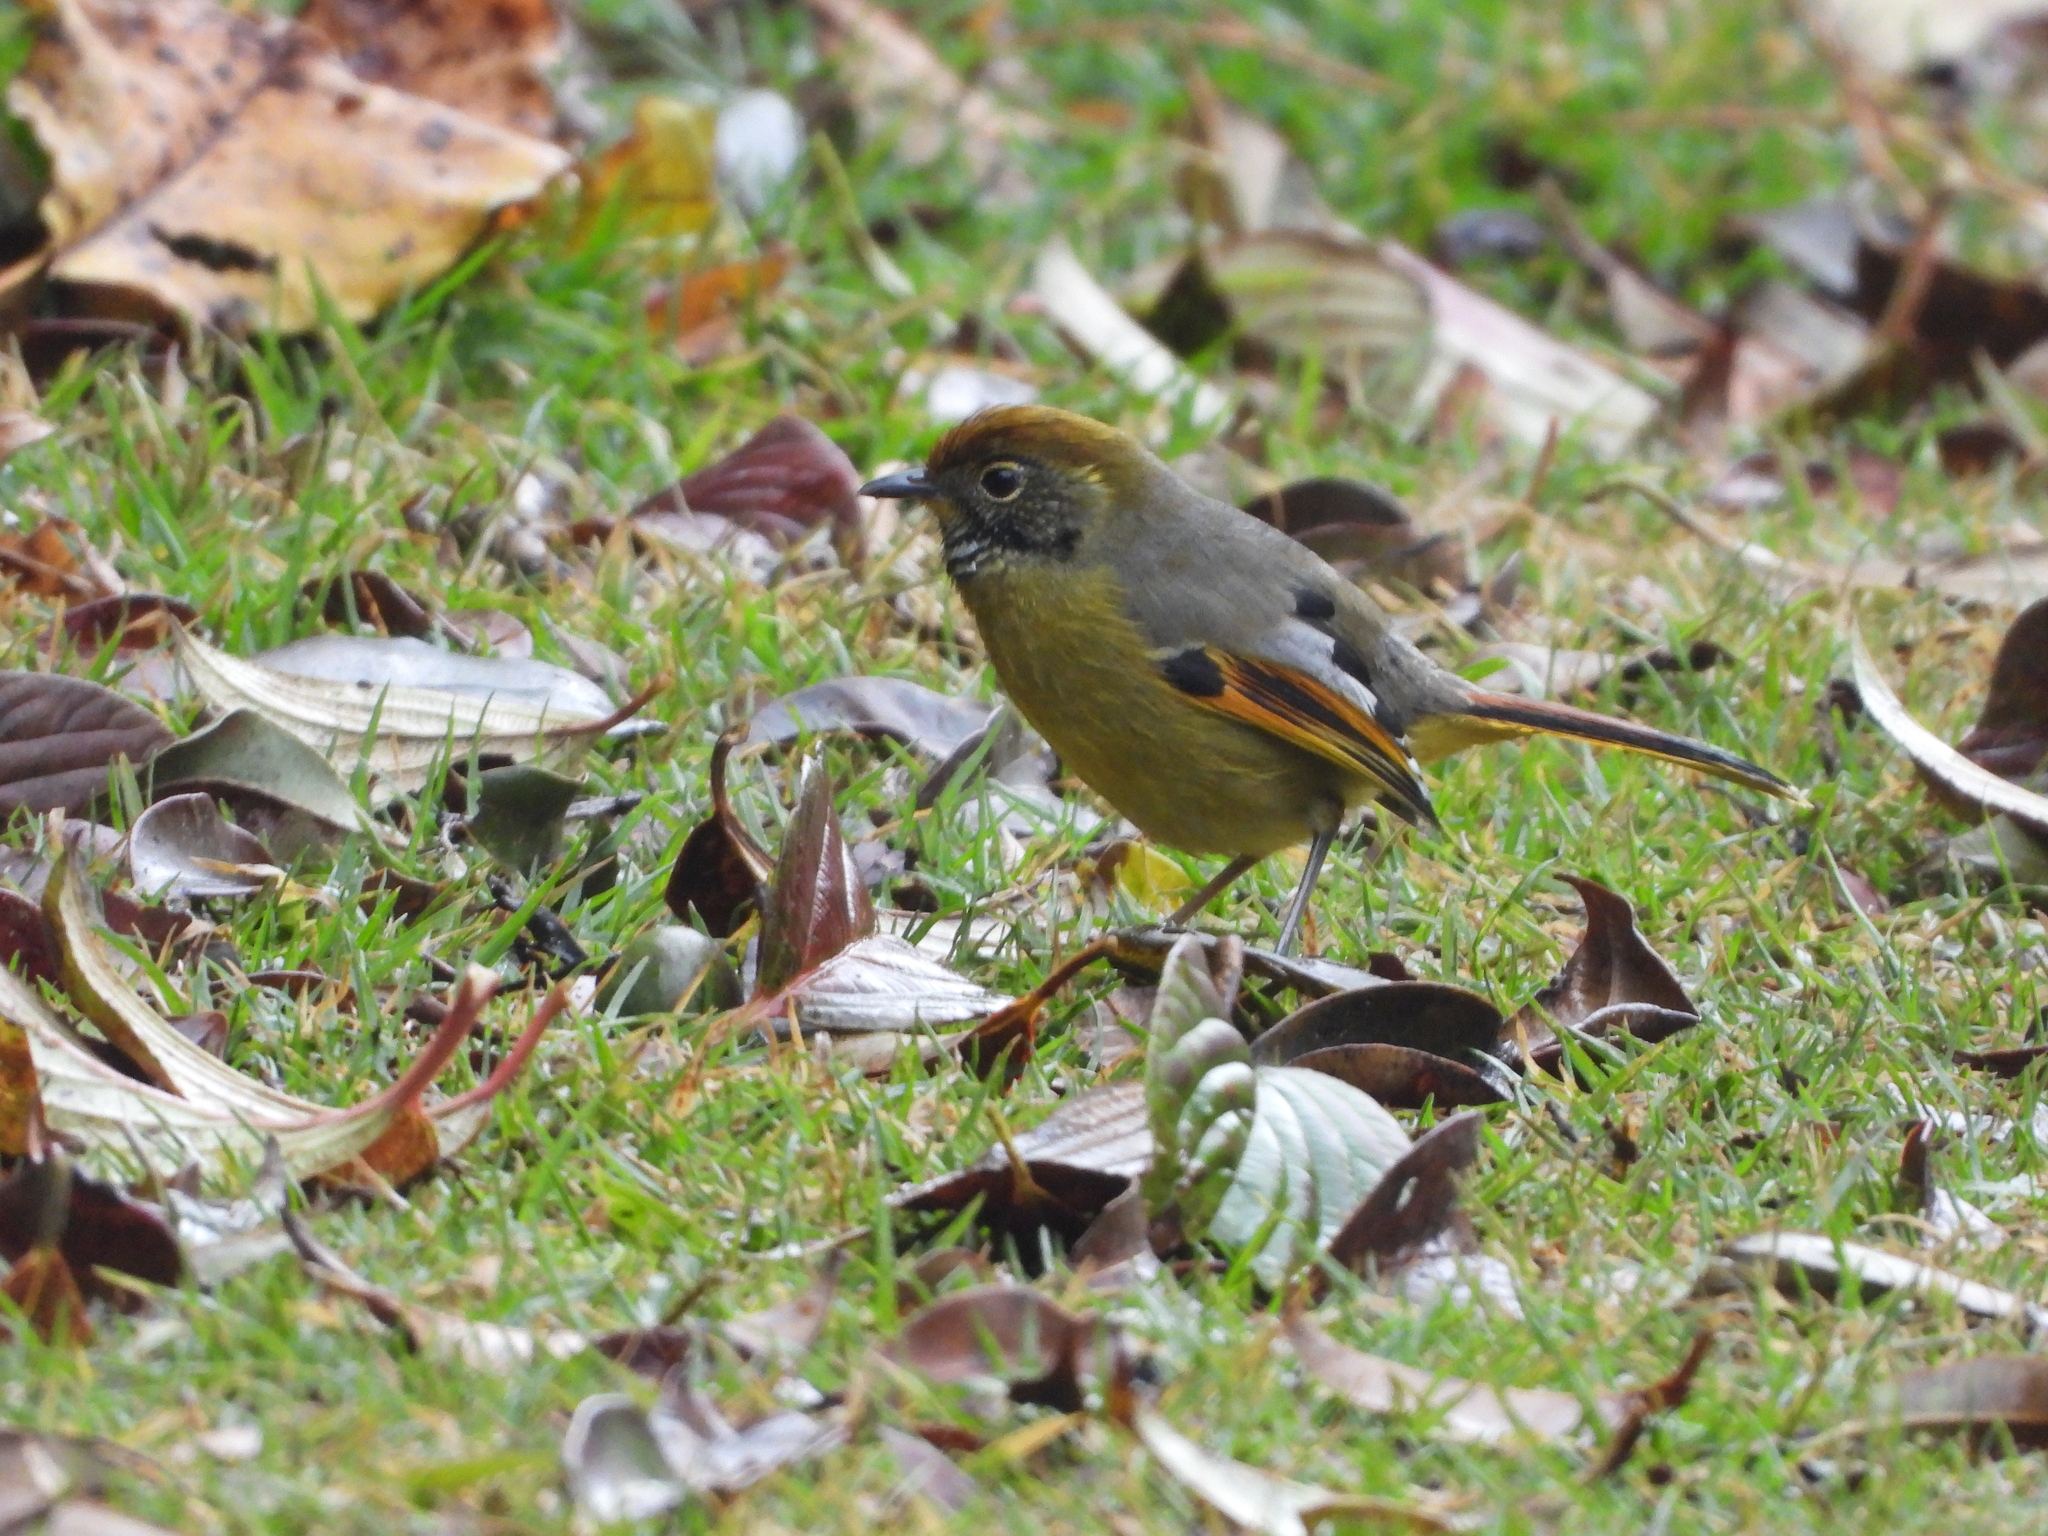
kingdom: Animalia
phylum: Chordata
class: Aves
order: Passeriformes
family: Leiothrichidae
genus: Minla
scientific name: Minla strigula
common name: Chestnut-tailed minla
